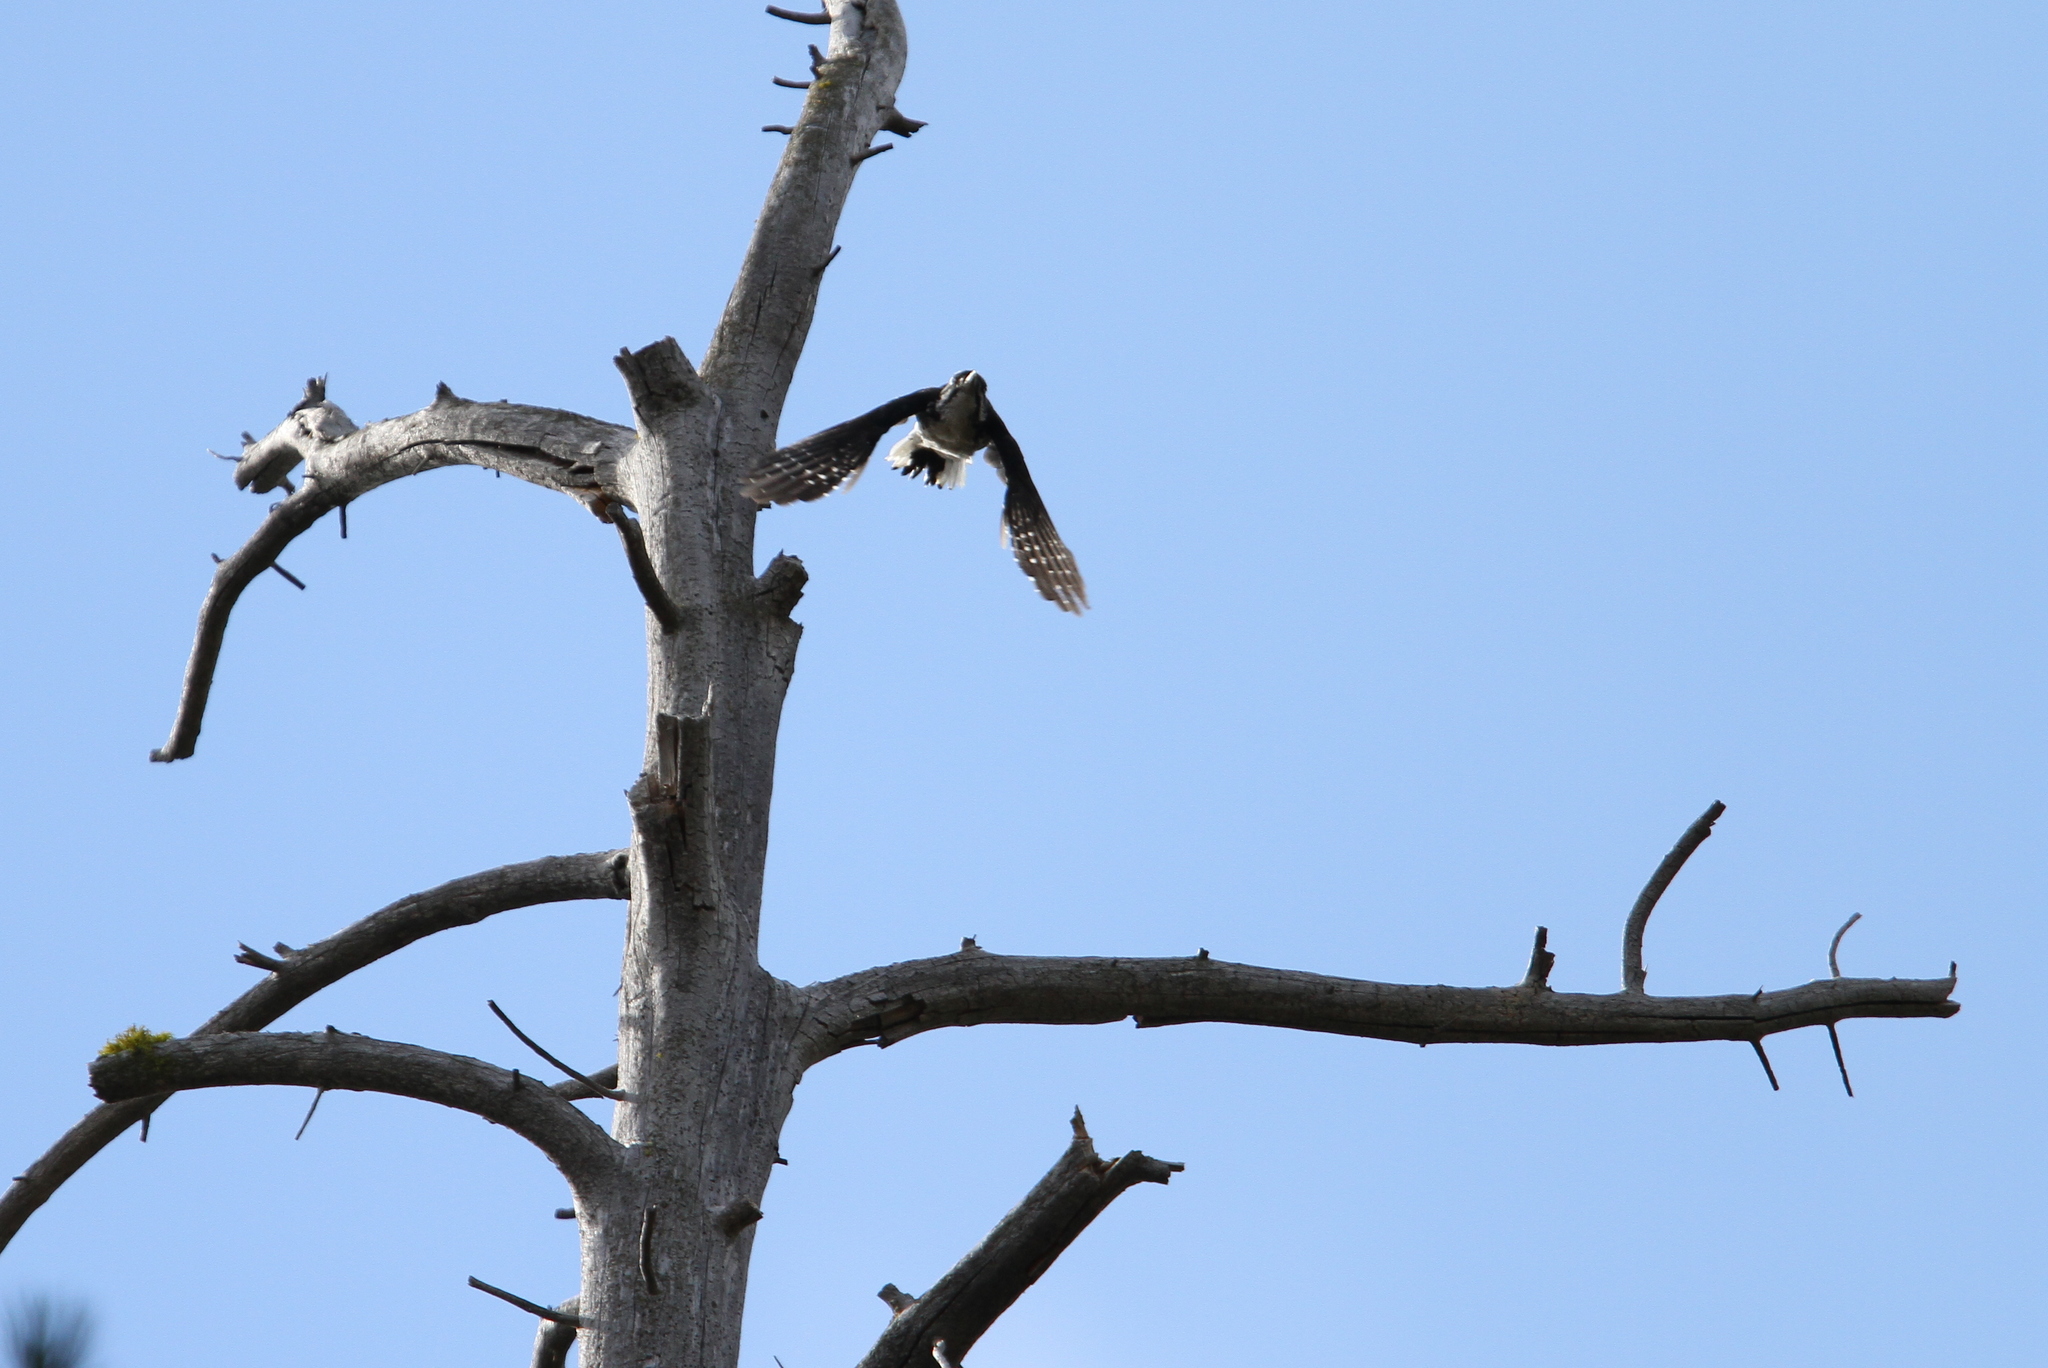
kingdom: Animalia
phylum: Chordata
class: Aves
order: Piciformes
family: Picidae
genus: Picoides
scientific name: Picoides arcticus
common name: Black-backed woodpecker
